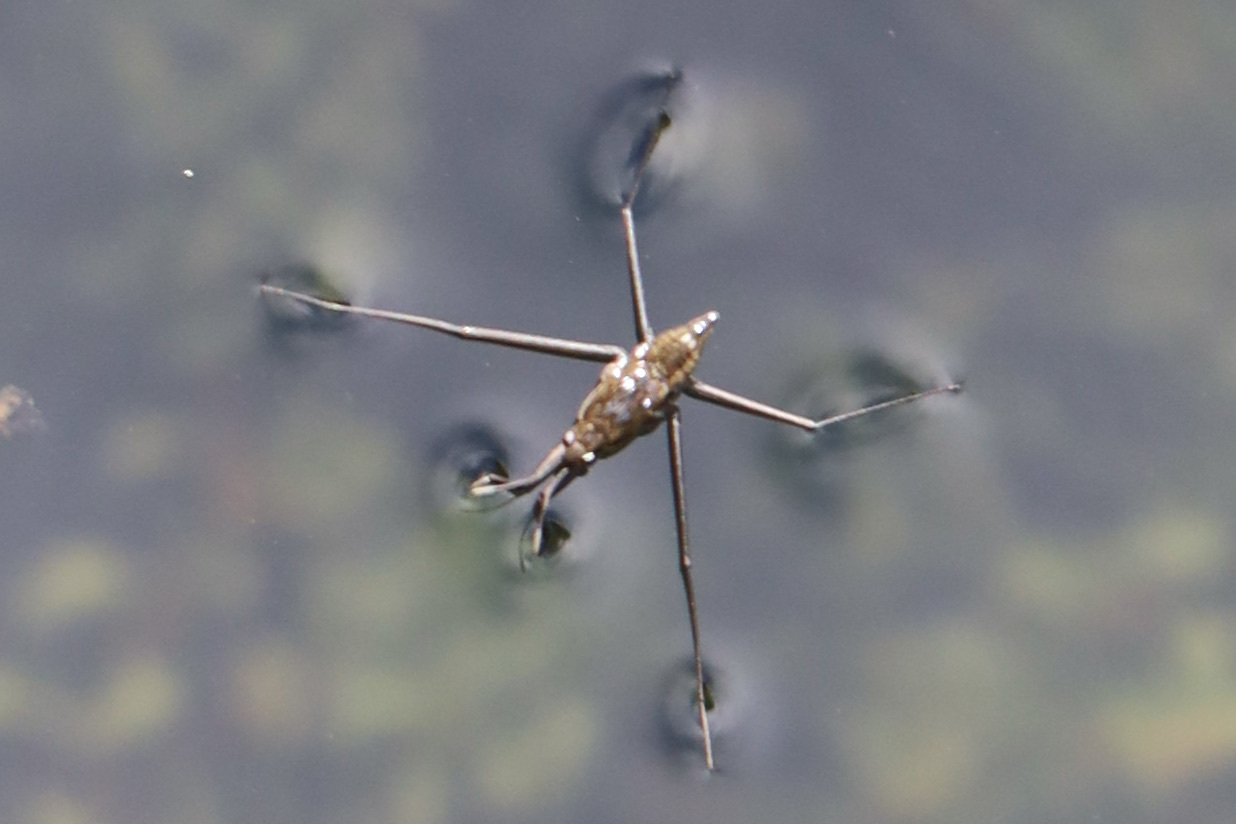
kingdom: Animalia
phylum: Arthropoda
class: Insecta
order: Hemiptera
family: Gerridae
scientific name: Gerridae
